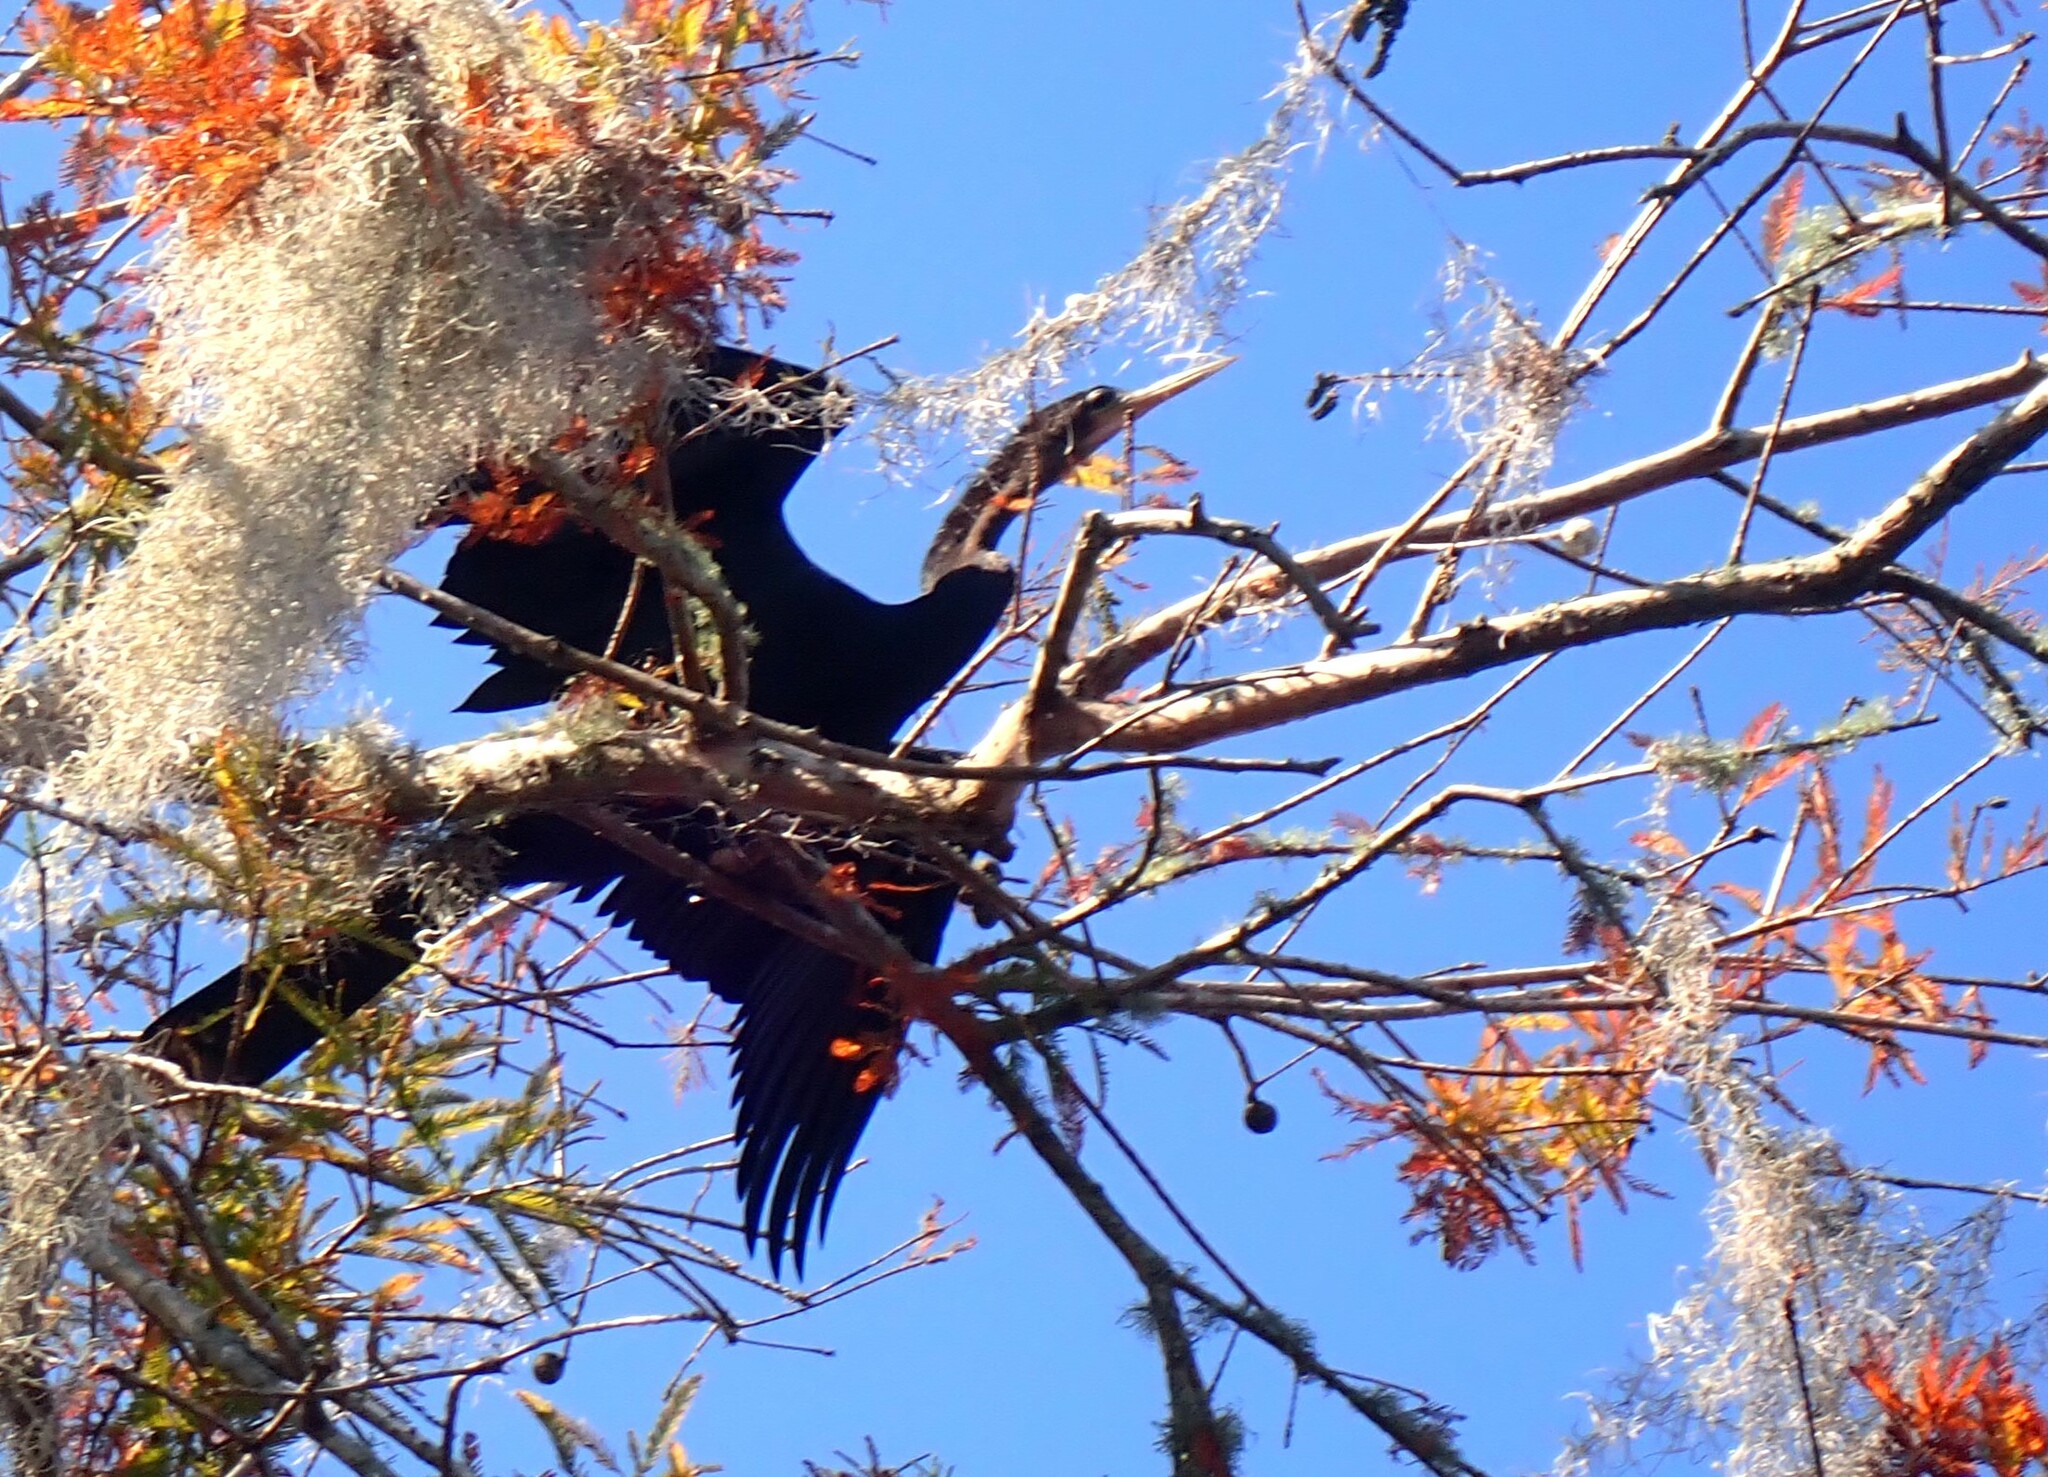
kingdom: Animalia
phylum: Chordata
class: Aves
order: Suliformes
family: Anhingidae
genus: Anhinga
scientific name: Anhinga anhinga
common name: Anhinga
